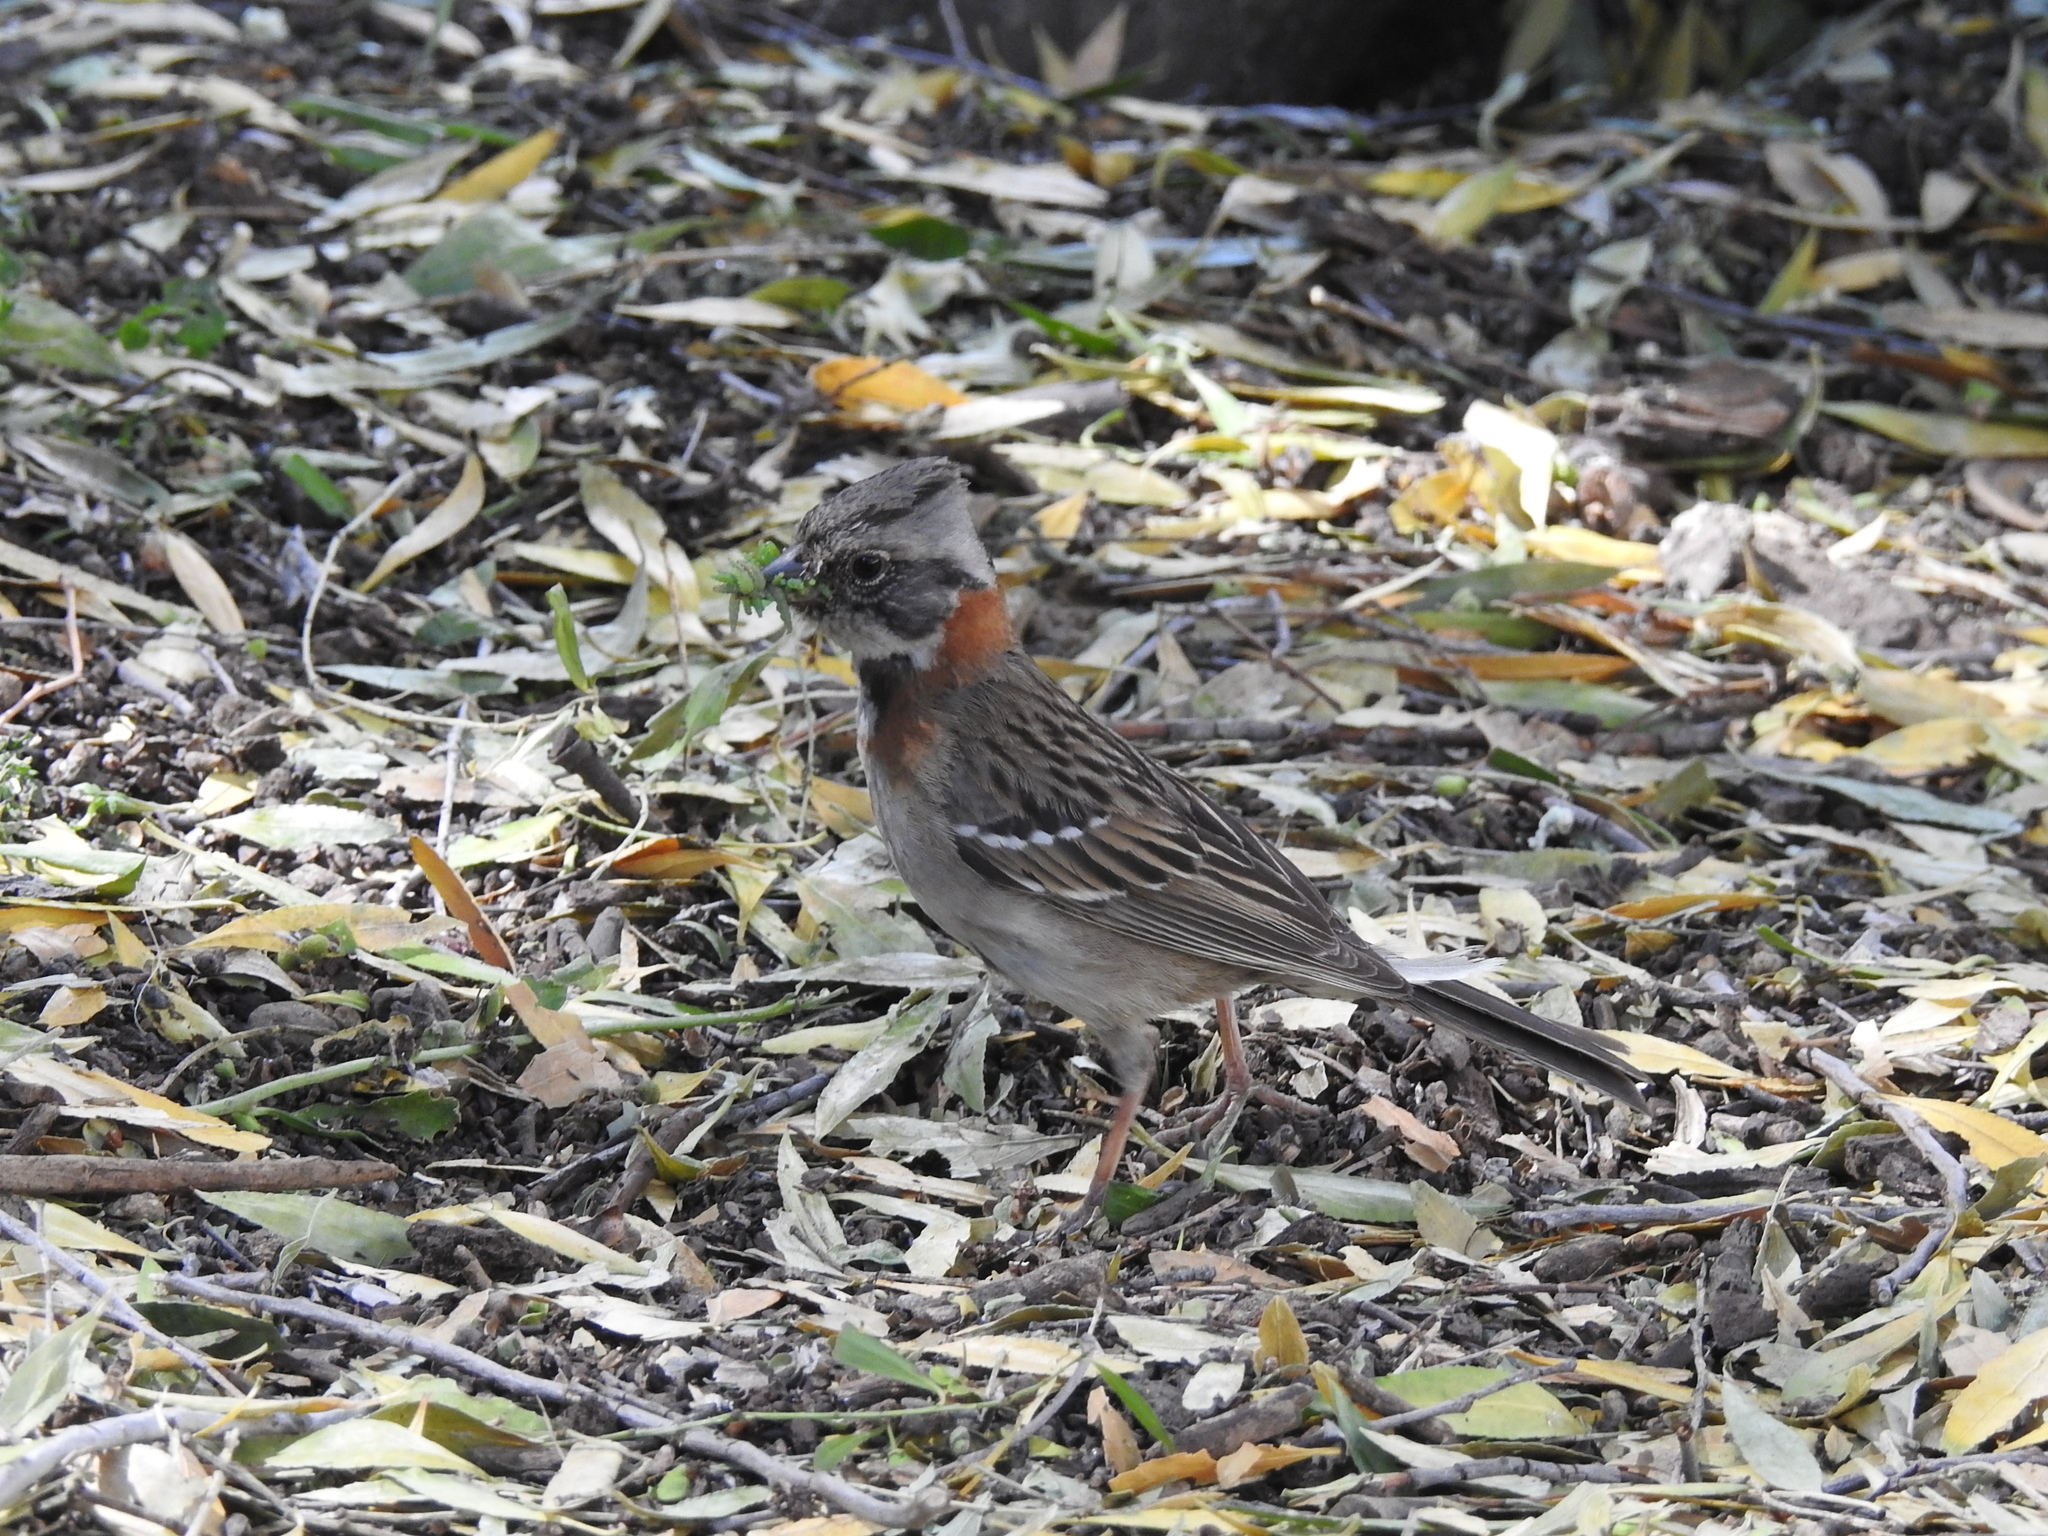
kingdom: Animalia
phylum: Chordata
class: Aves
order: Passeriformes
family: Passerellidae
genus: Zonotrichia
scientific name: Zonotrichia capensis
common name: Rufous-collared sparrow
